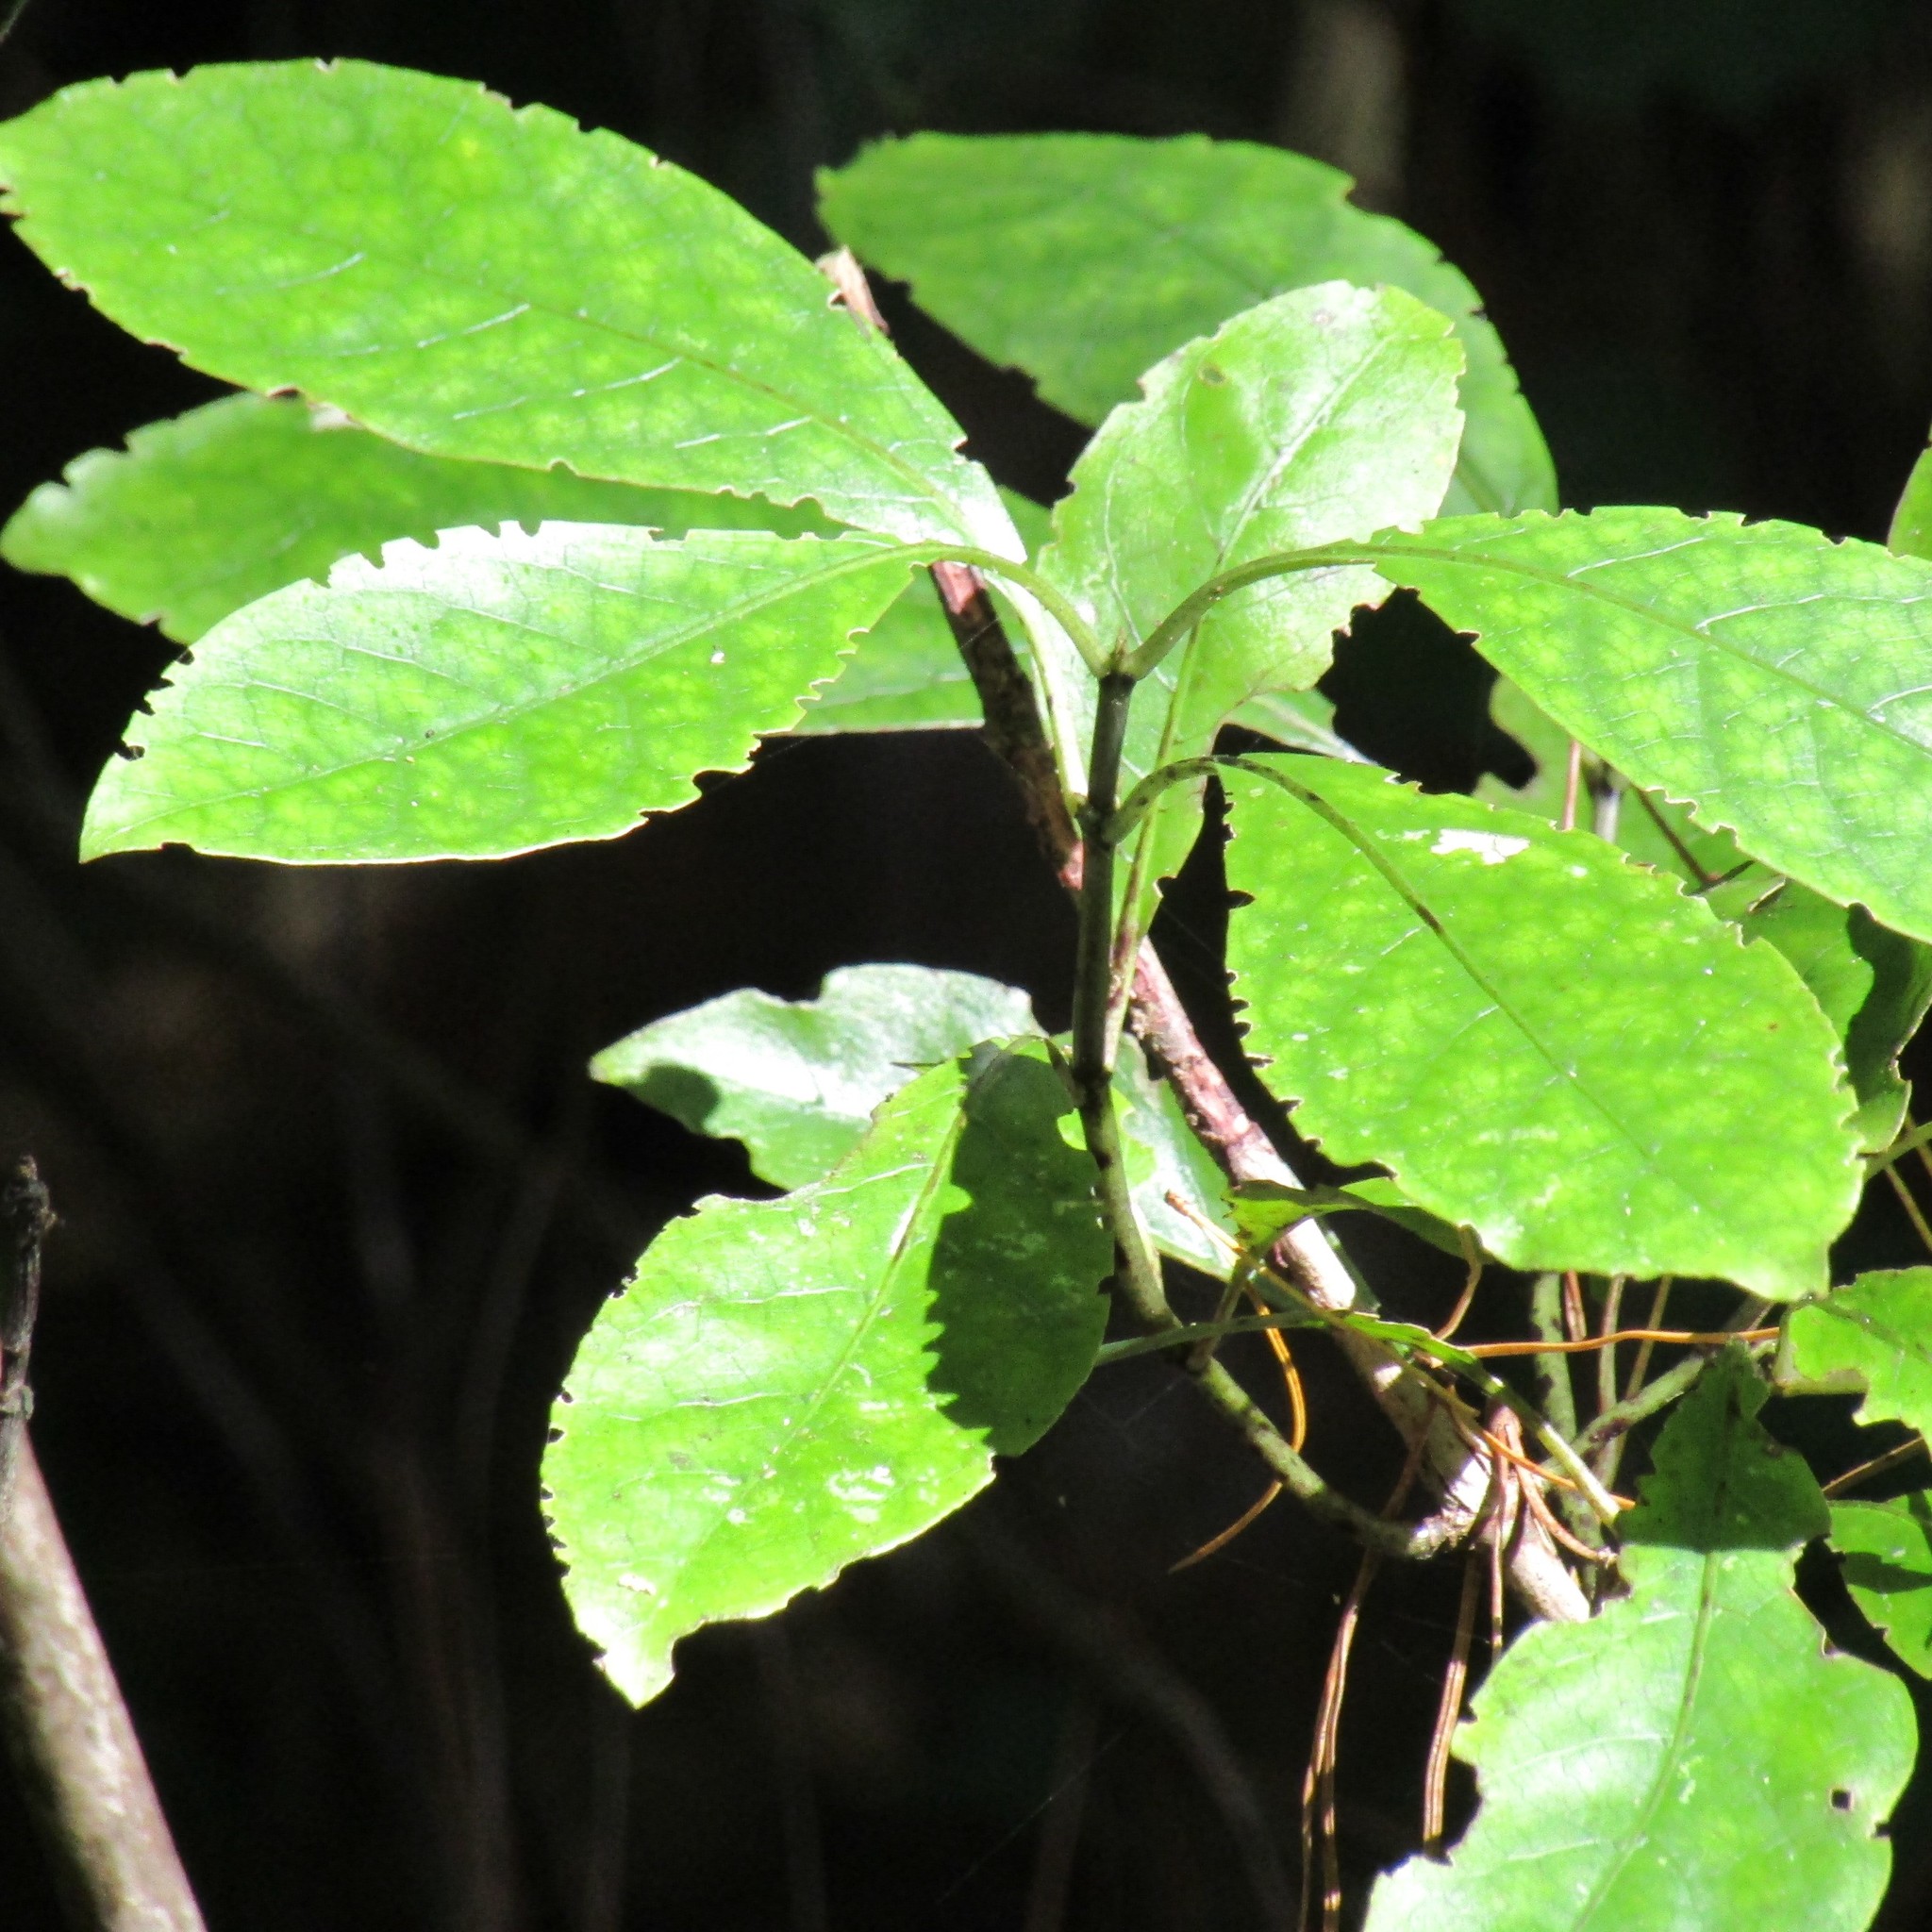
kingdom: Plantae
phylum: Tracheophyta
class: Magnoliopsida
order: Gentianales
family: Rubiaceae
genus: Coprosma
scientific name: Coprosma autumnalis
